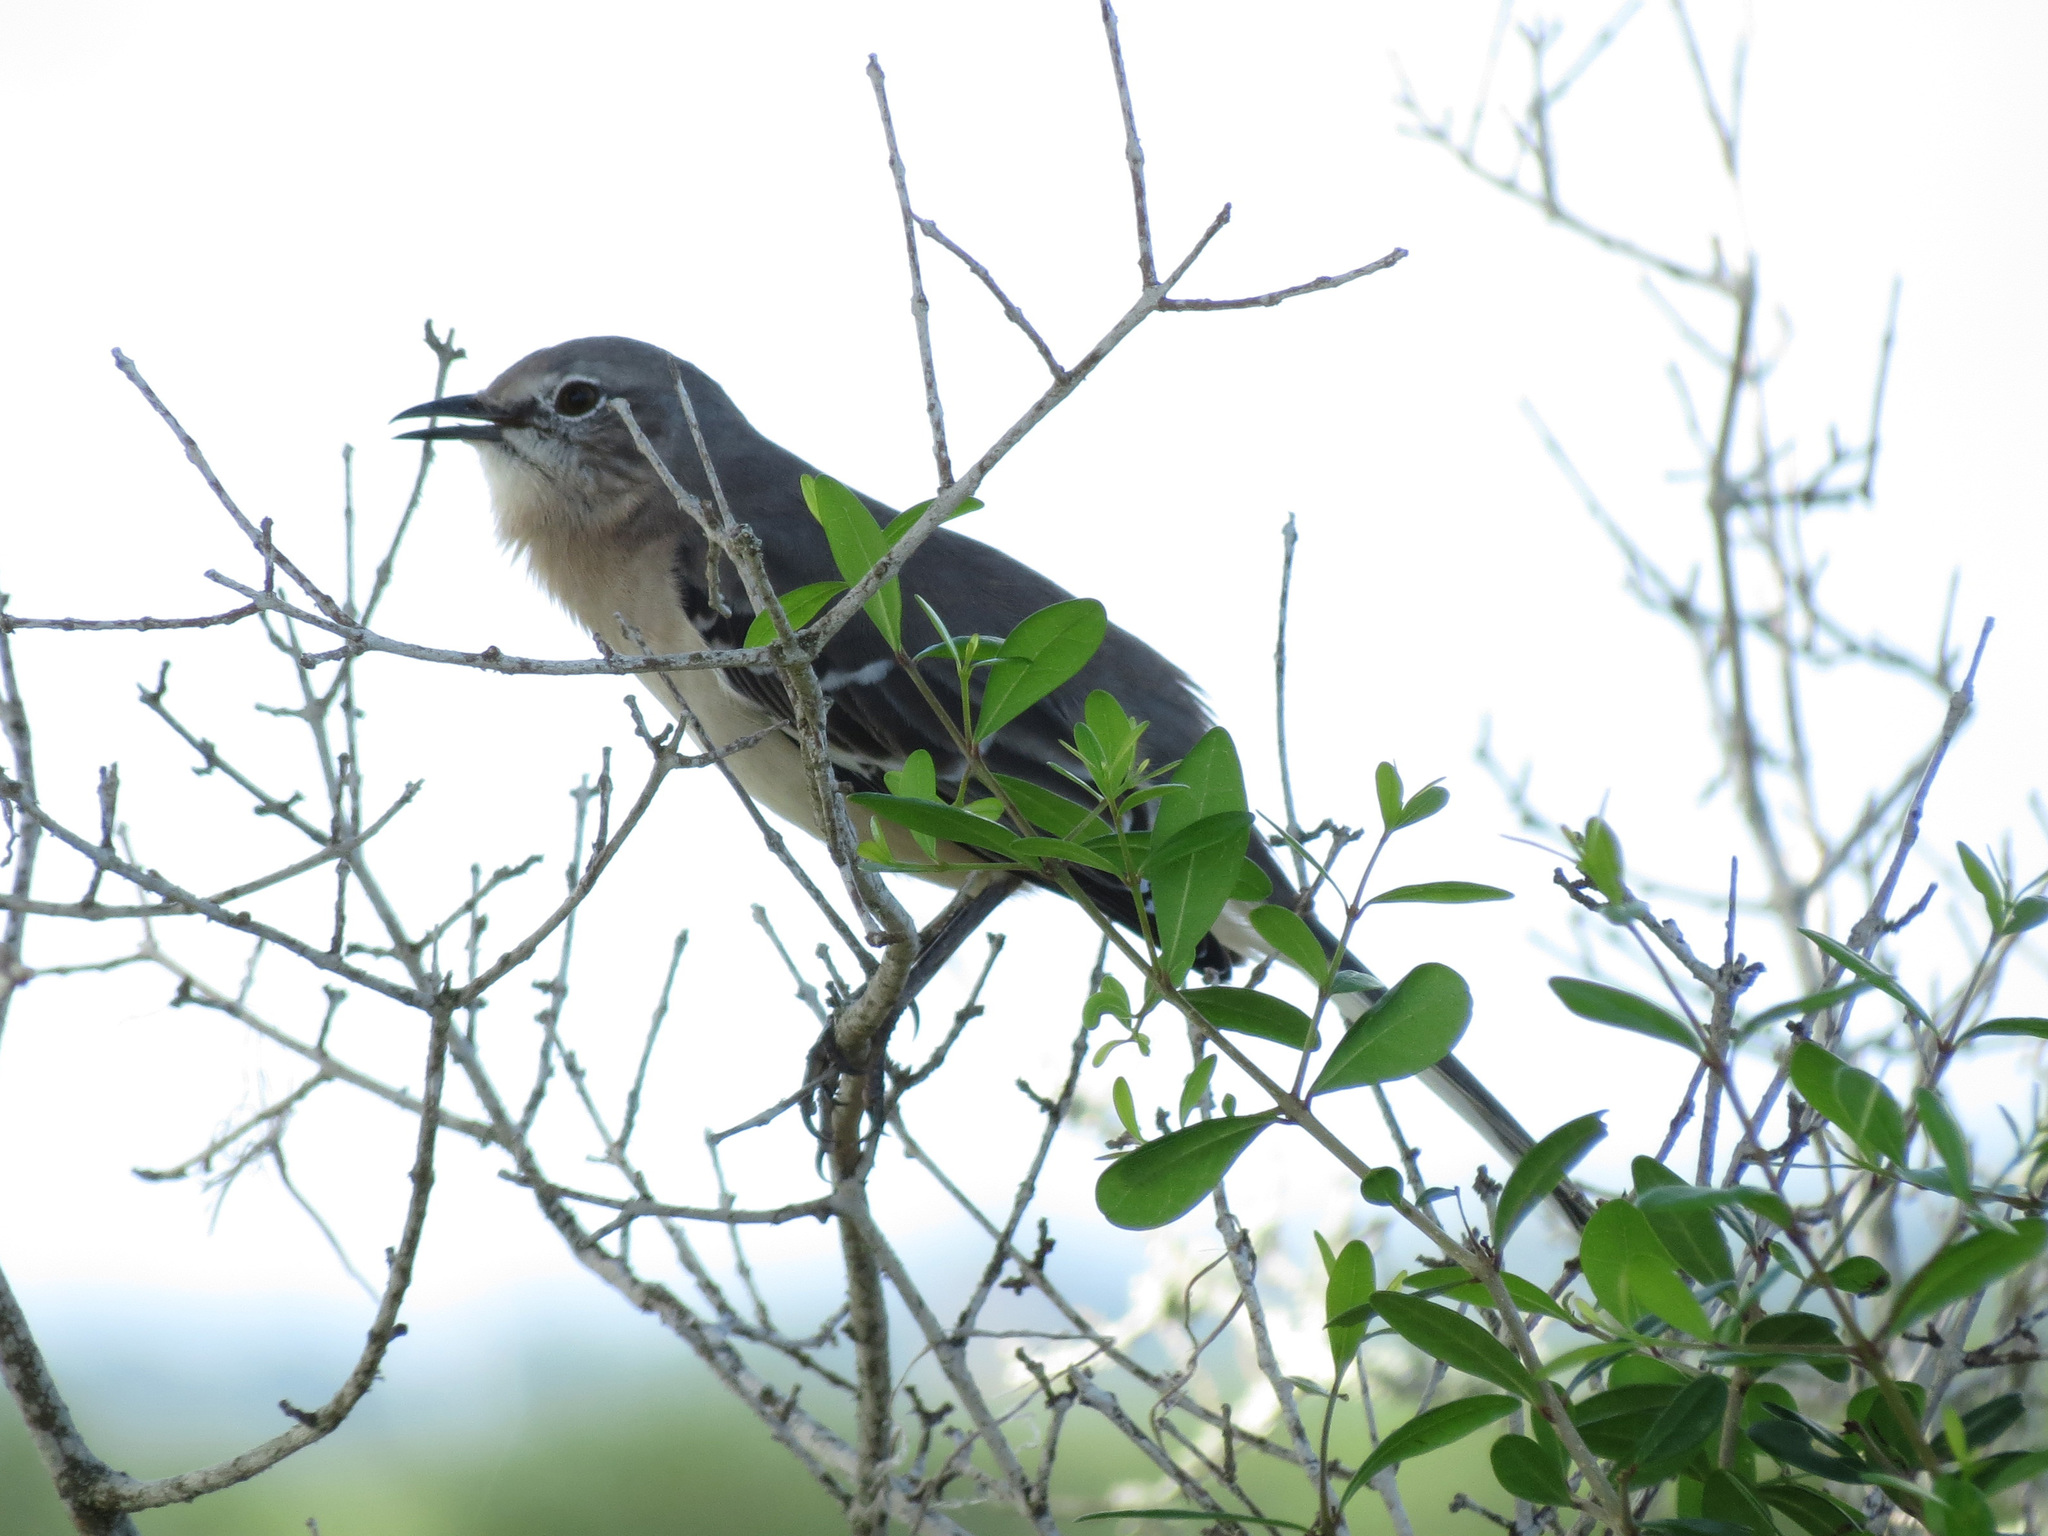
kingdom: Animalia
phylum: Chordata
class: Aves
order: Passeriformes
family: Mimidae
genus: Mimus
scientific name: Mimus polyglottos
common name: Northern mockingbird
